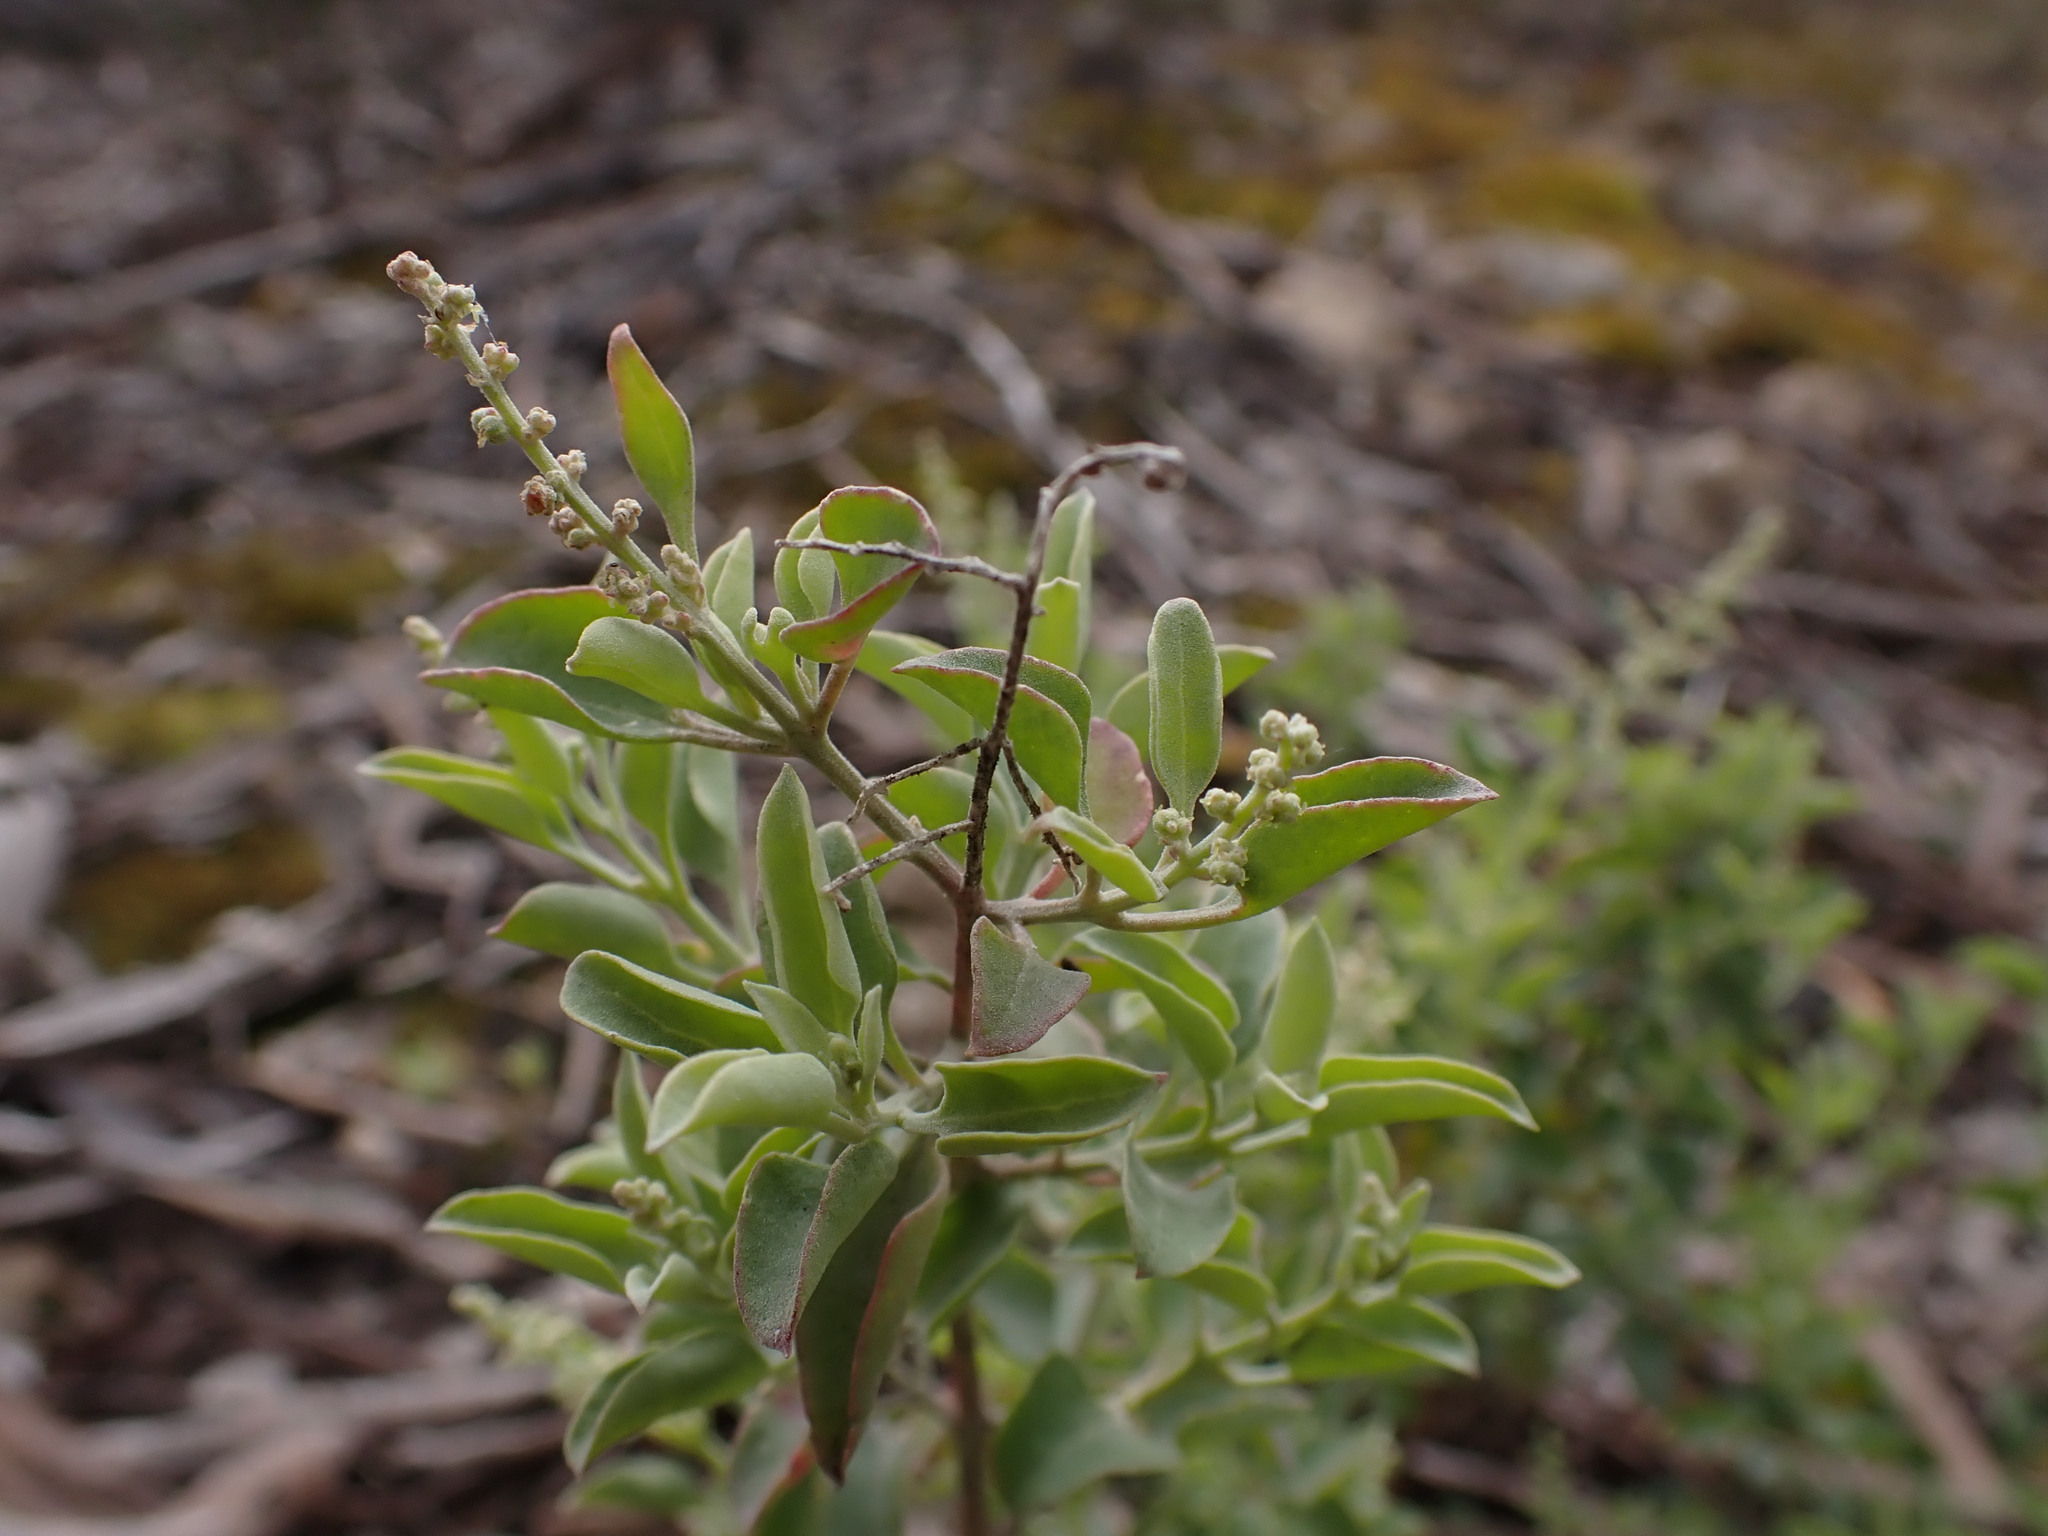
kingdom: Plantae
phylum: Tracheophyta
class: Magnoliopsida
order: Caryophyllales
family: Amaranthaceae
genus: Chenopodium
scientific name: Chenopodium parabolicum
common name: Old-man-saltbush
